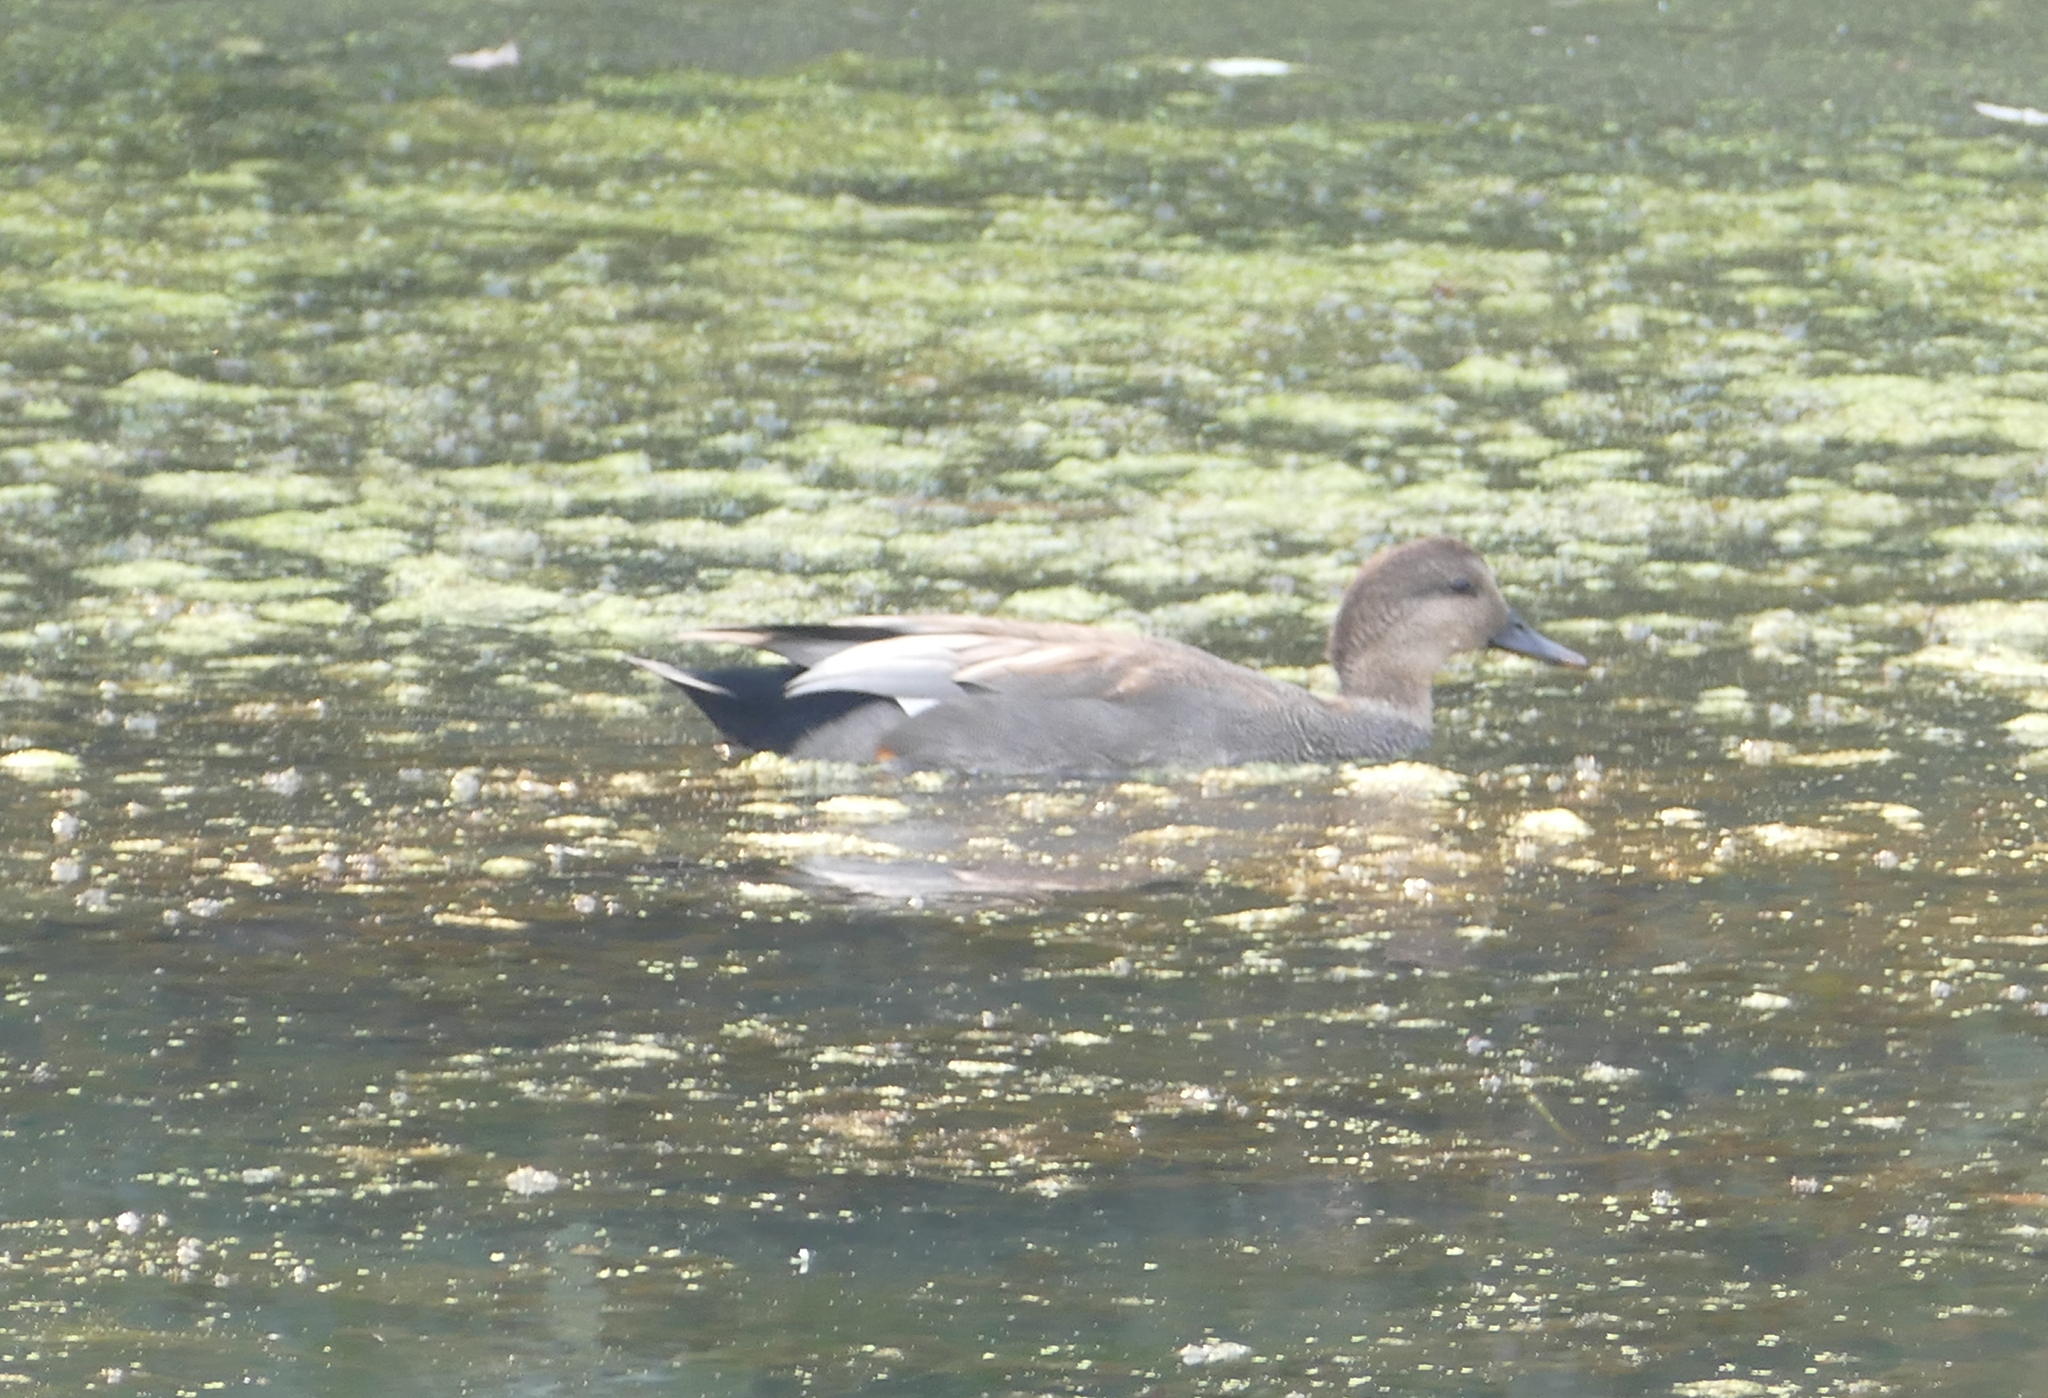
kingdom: Animalia
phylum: Chordata
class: Aves
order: Anseriformes
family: Anatidae
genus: Mareca
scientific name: Mareca strepera
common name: Gadwall
